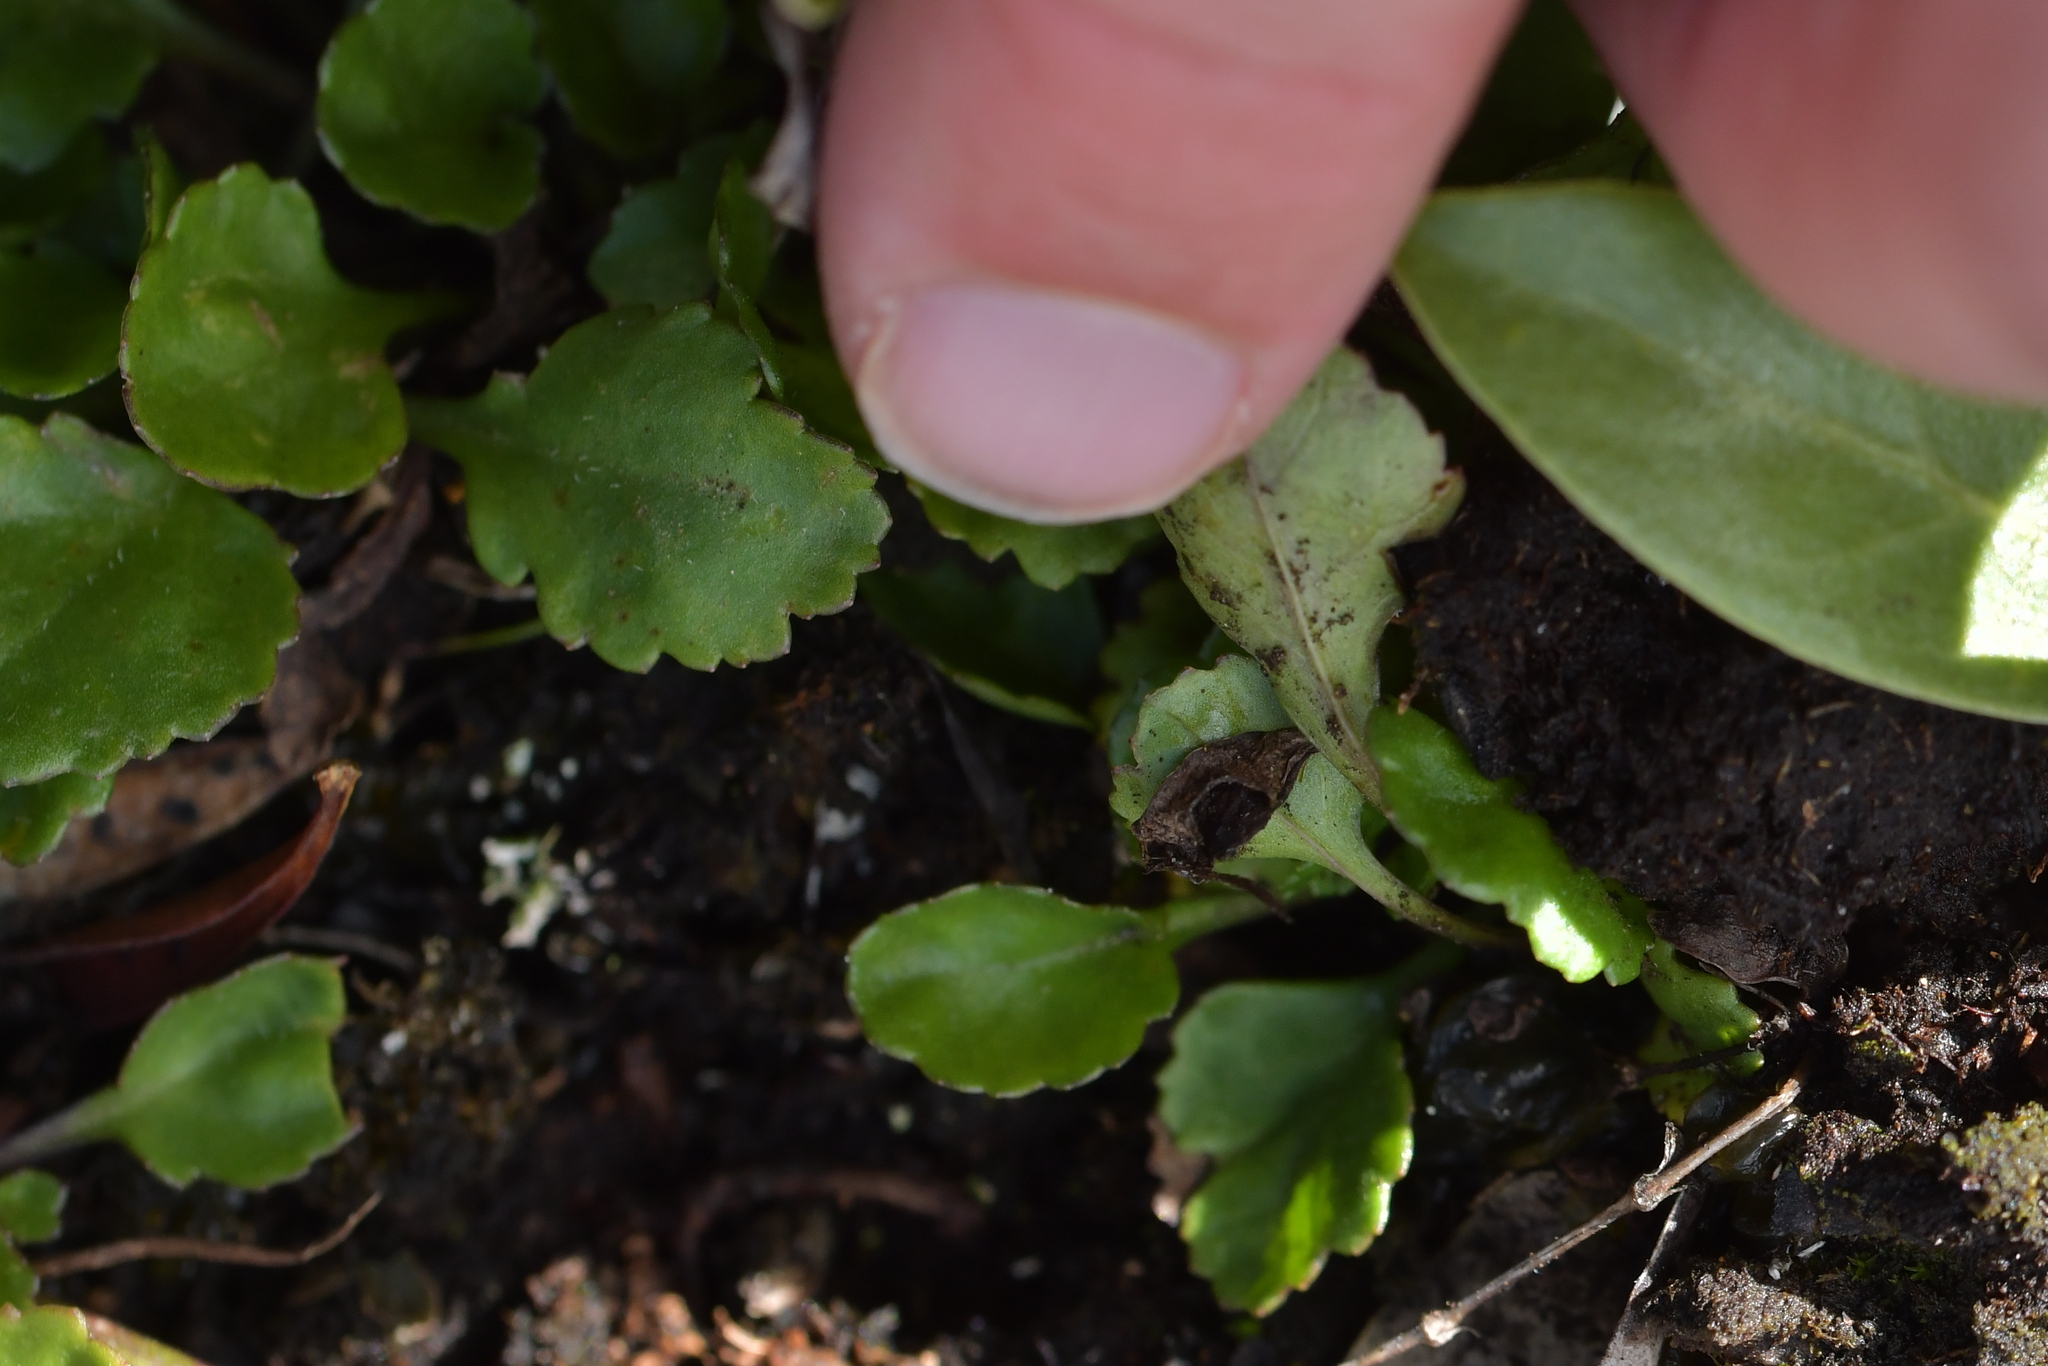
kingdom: Plantae
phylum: Tracheophyta
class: Magnoliopsida
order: Asterales
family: Asteraceae
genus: Leucanthemum
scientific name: Leucanthemum vulgare
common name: Oxeye daisy
